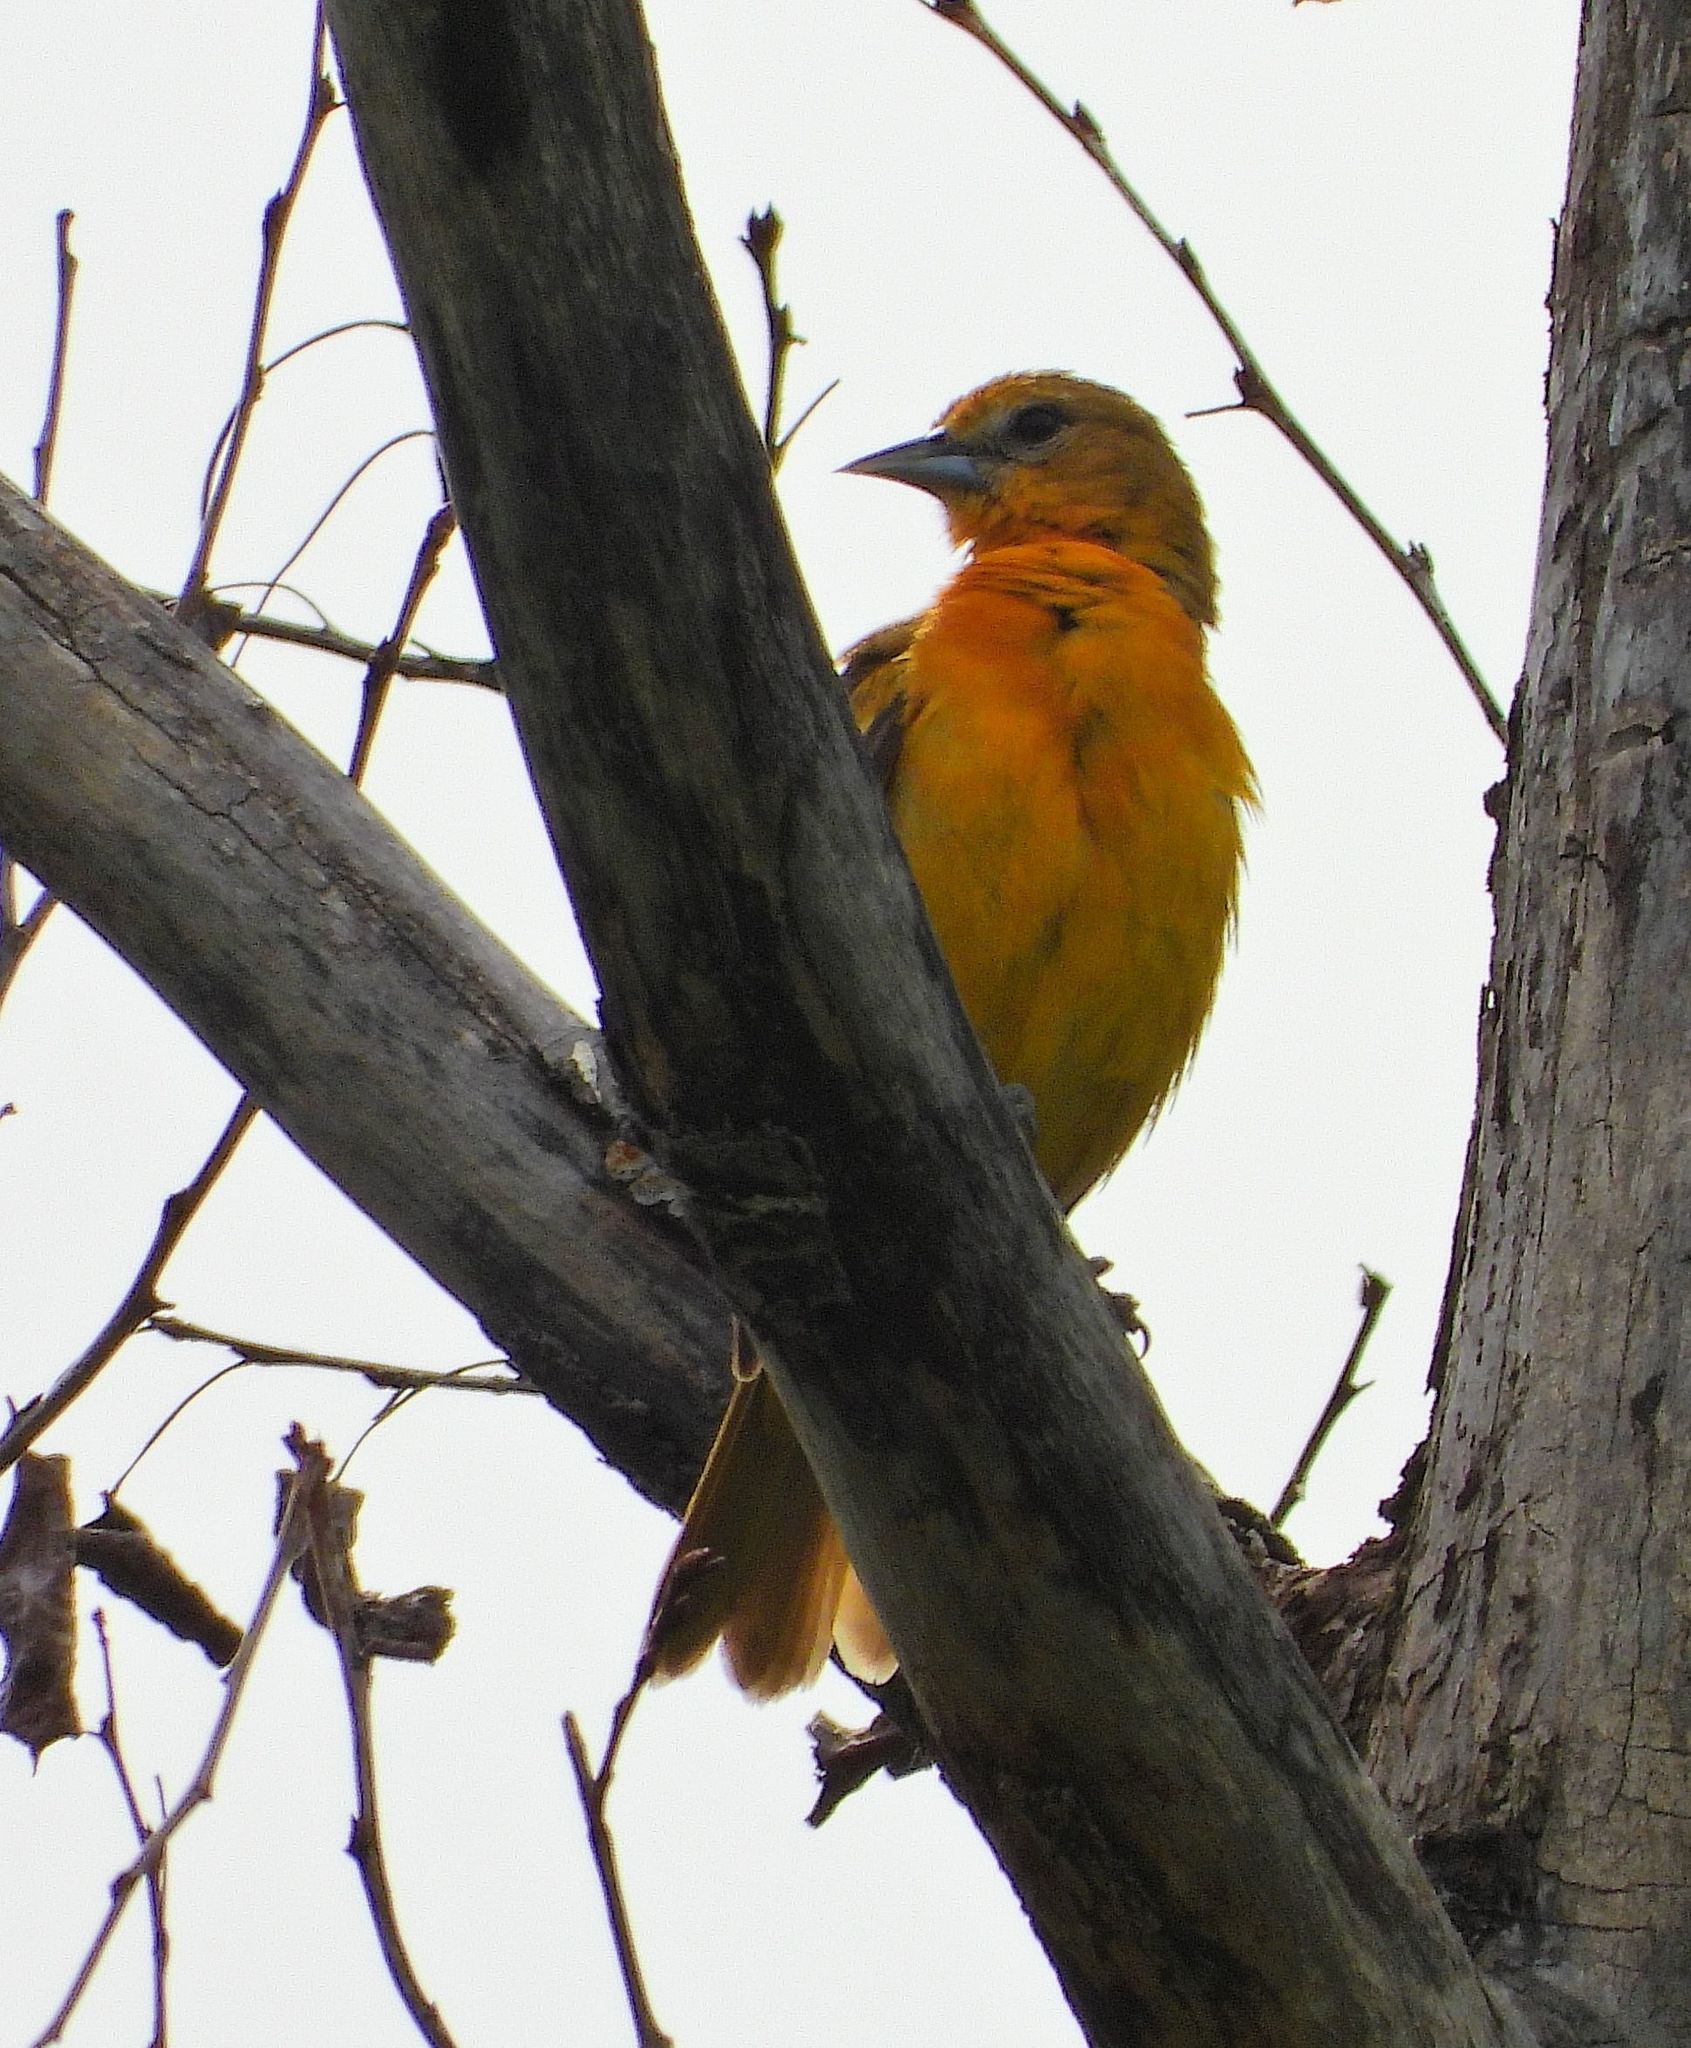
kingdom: Animalia
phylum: Chordata
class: Aves
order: Passeriformes
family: Icteridae
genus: Icterus
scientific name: Icterus galbula
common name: Baltimore oriole
